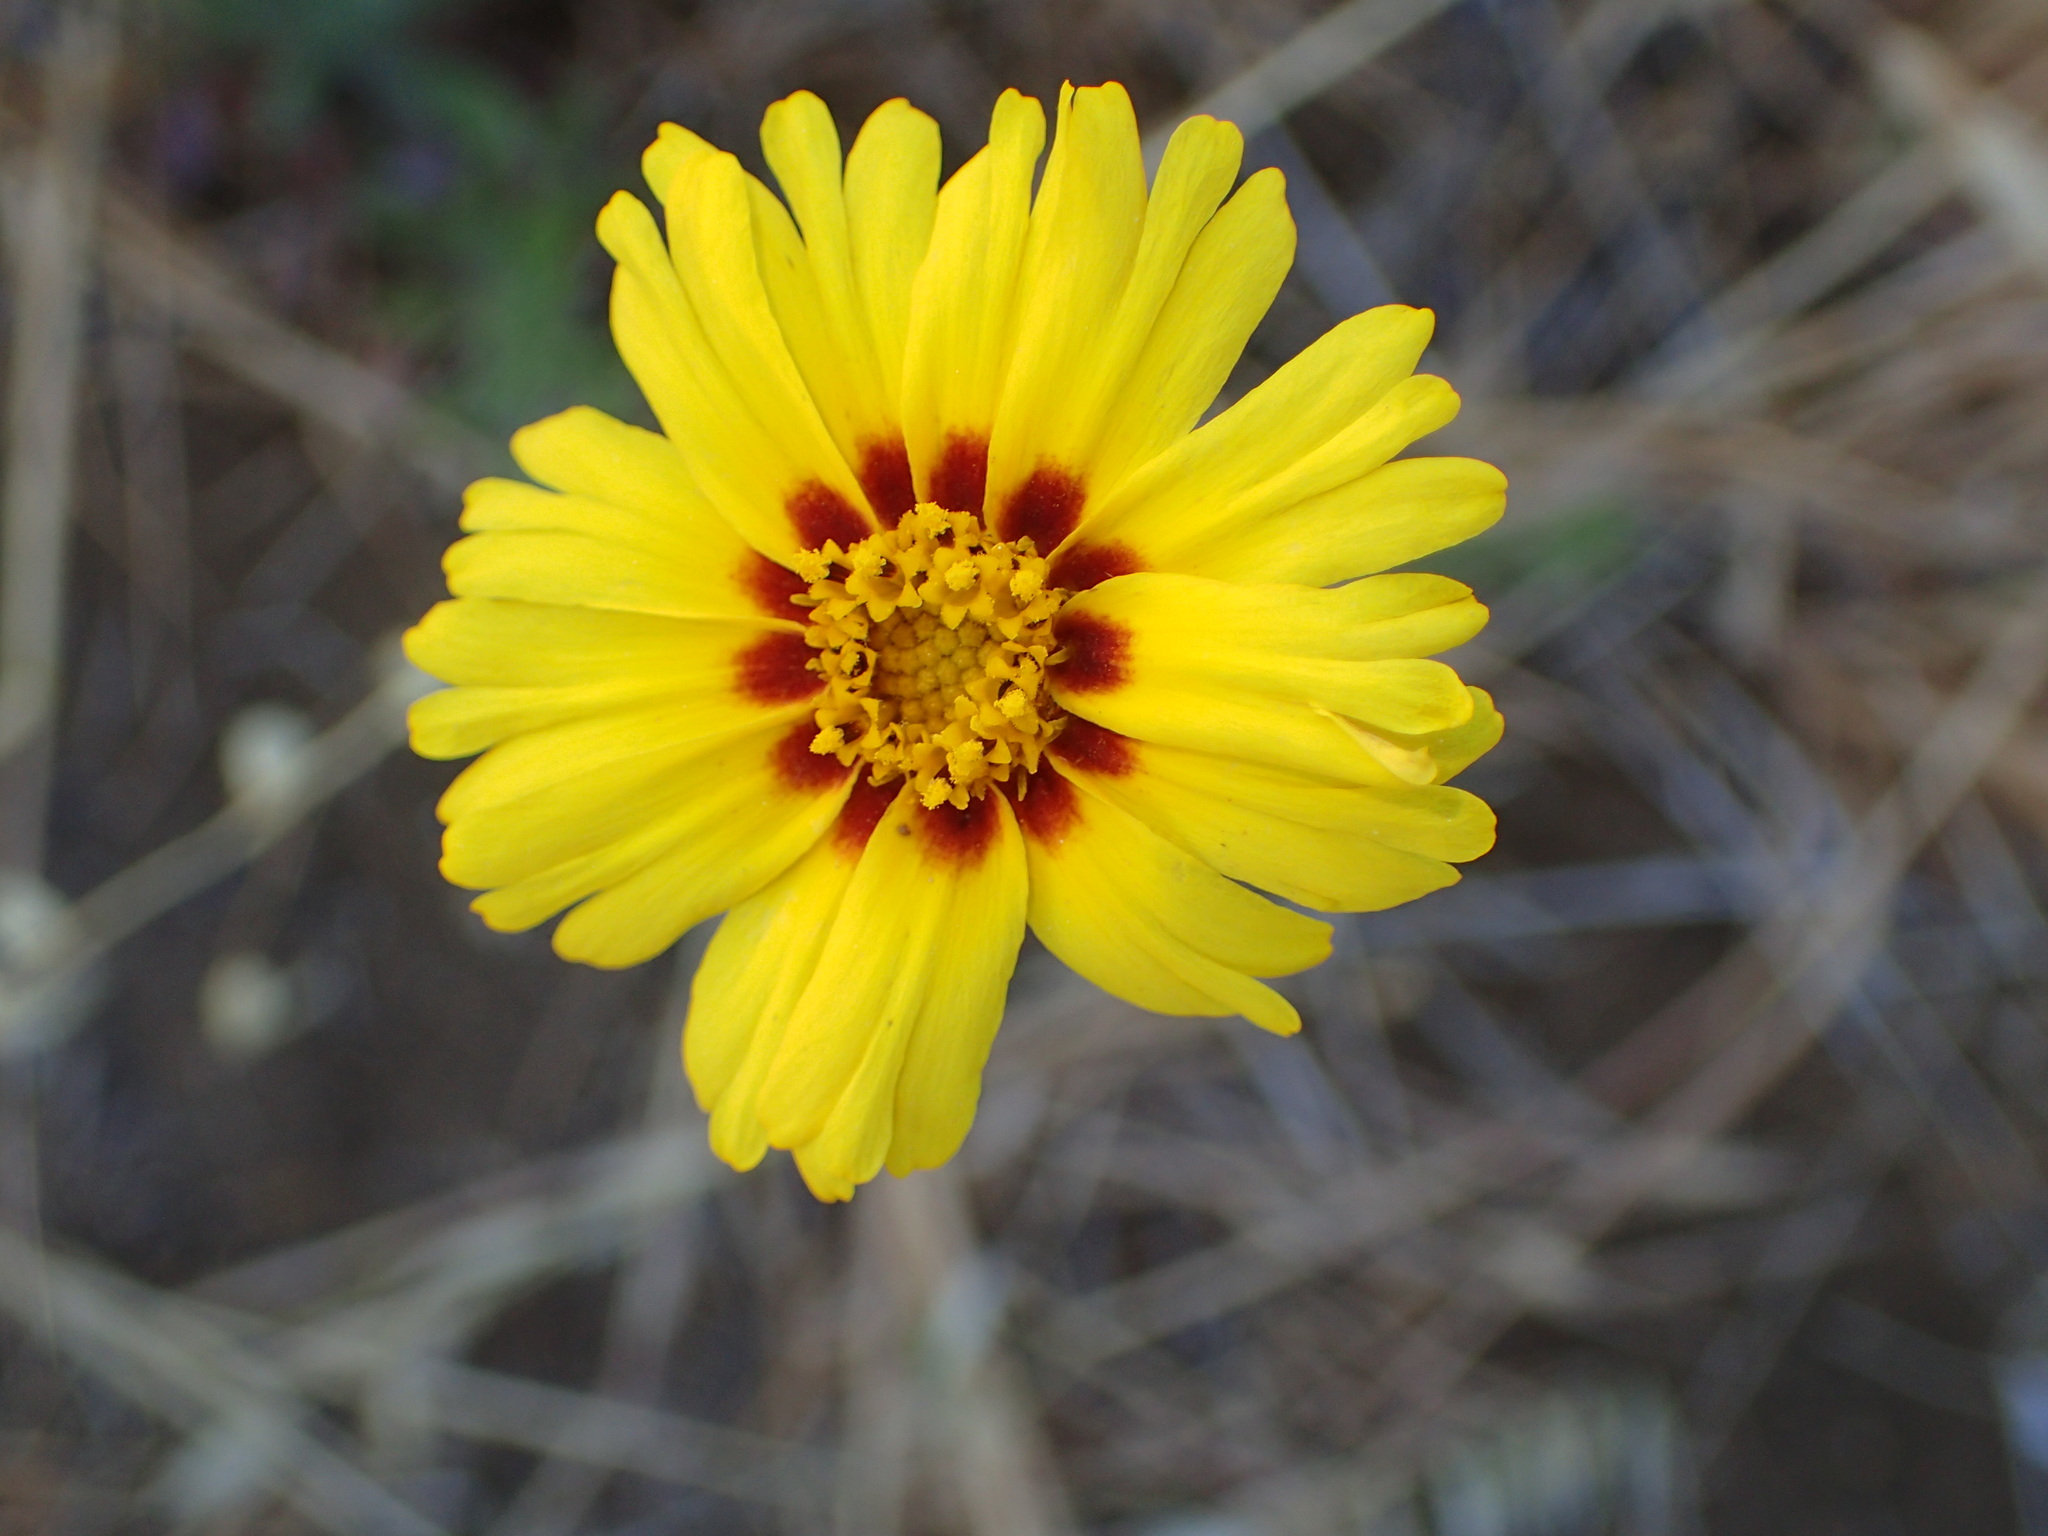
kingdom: Plantae
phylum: Tracheophyta
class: Magnoliopsida
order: Asterales
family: Asteraceae
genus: Madia
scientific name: Madia elegans
